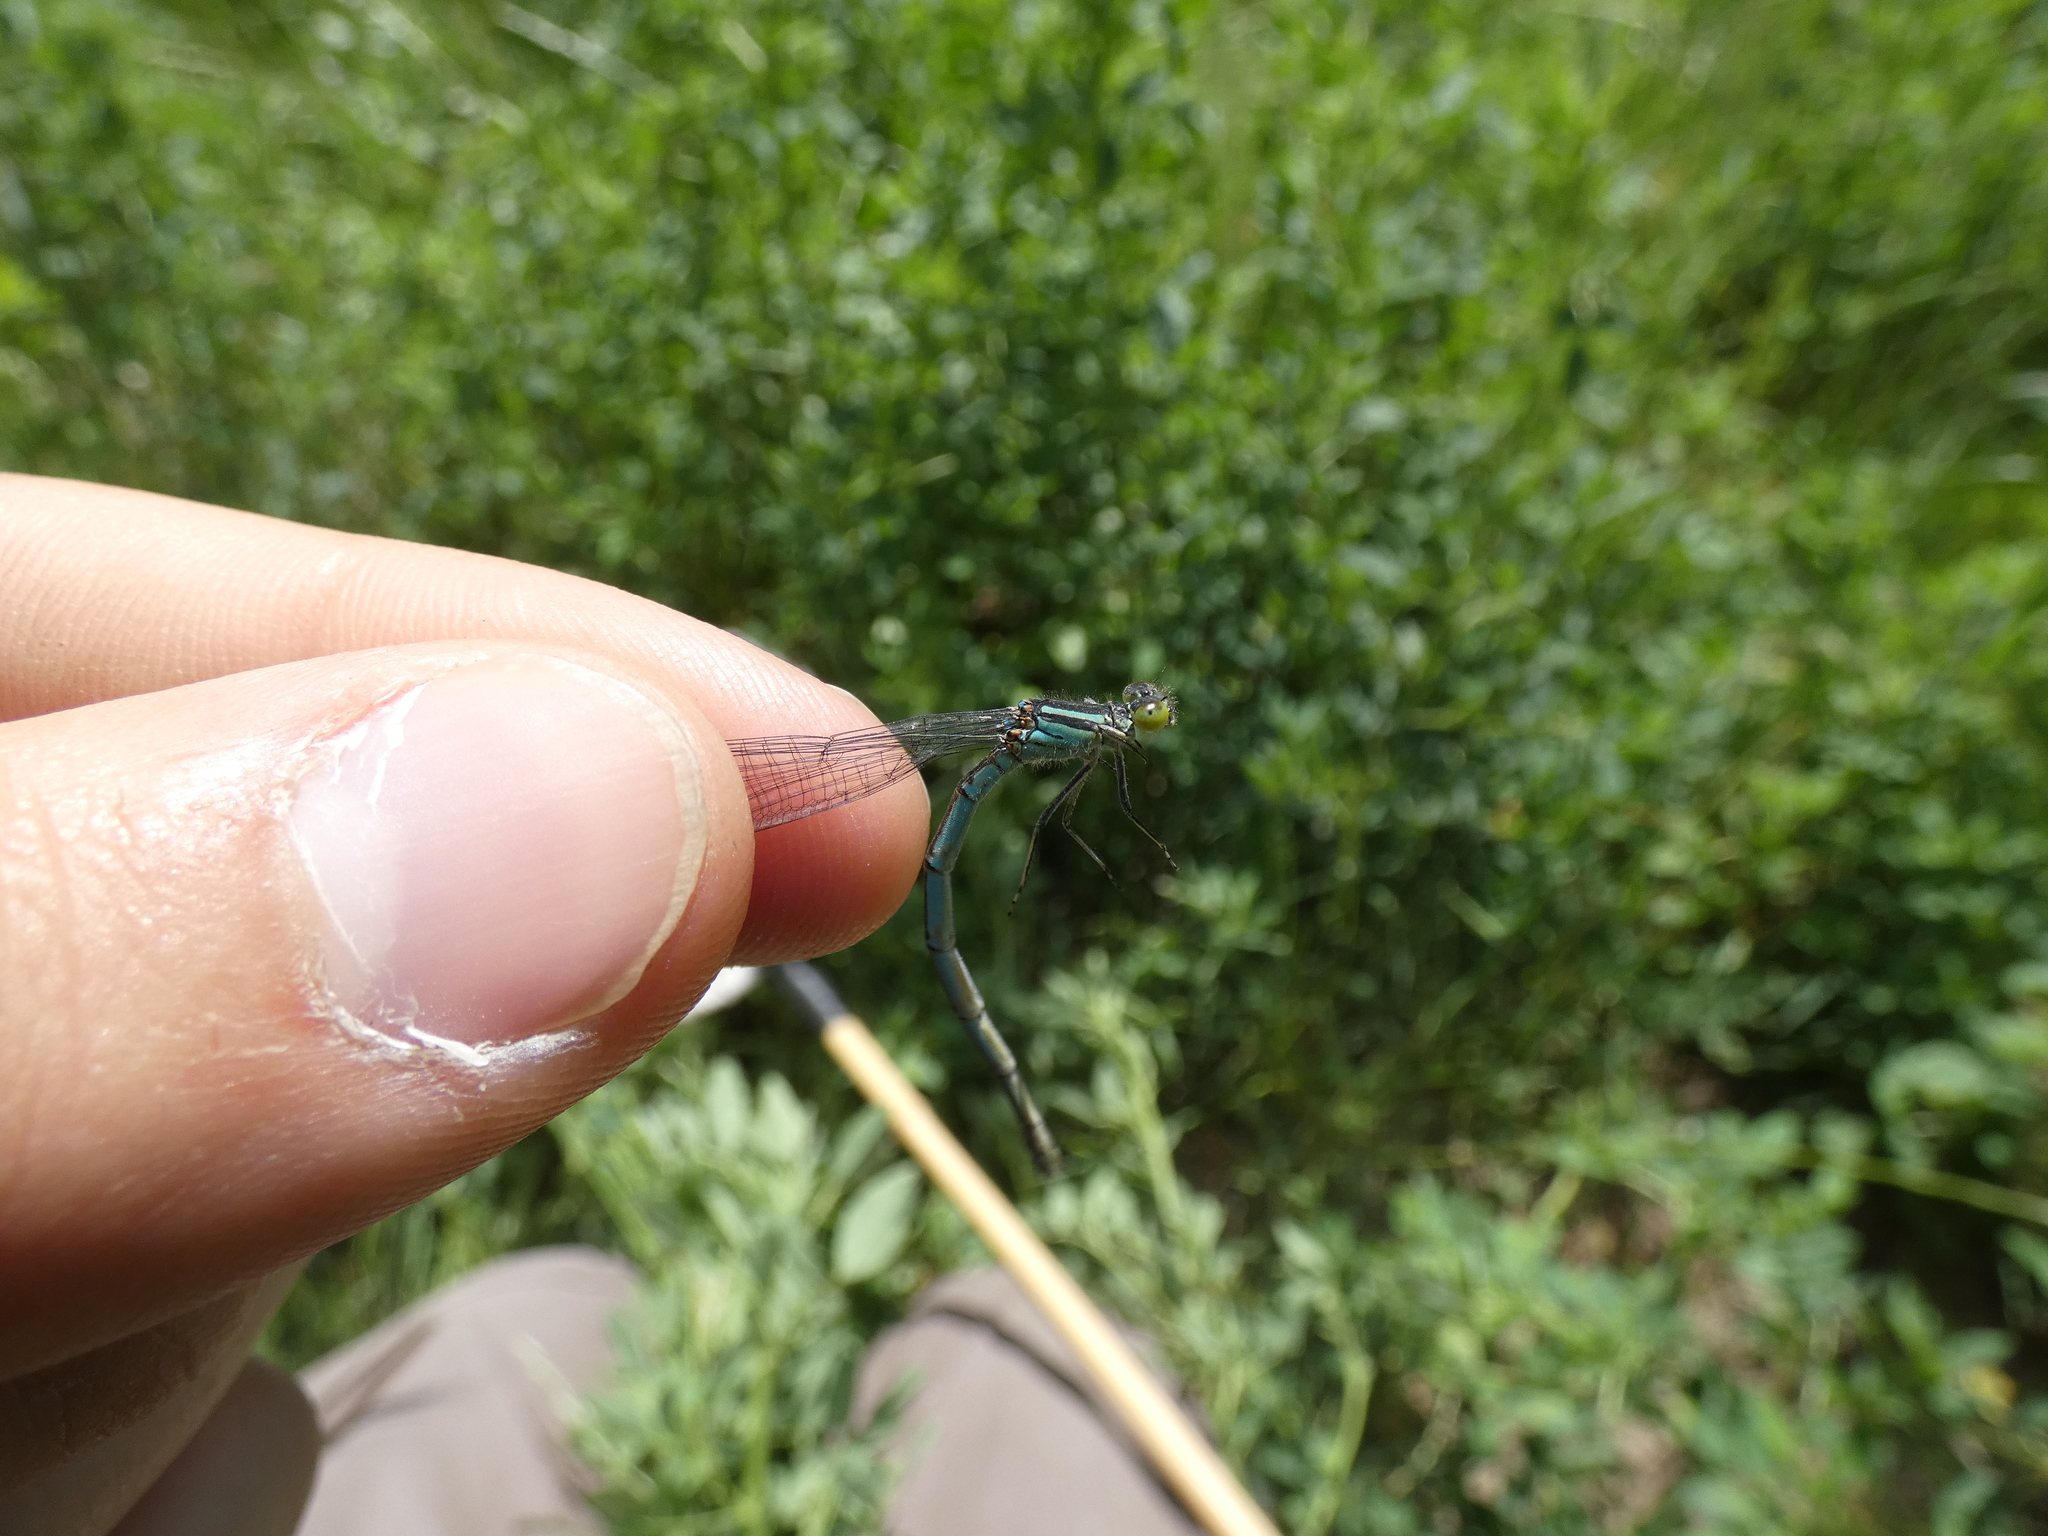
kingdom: Animalia
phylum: Arthropoda
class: Insecta
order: Odonata
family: Coenagrionidae
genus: Erythromma
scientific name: Erythromma lindenii
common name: Blue-eye
